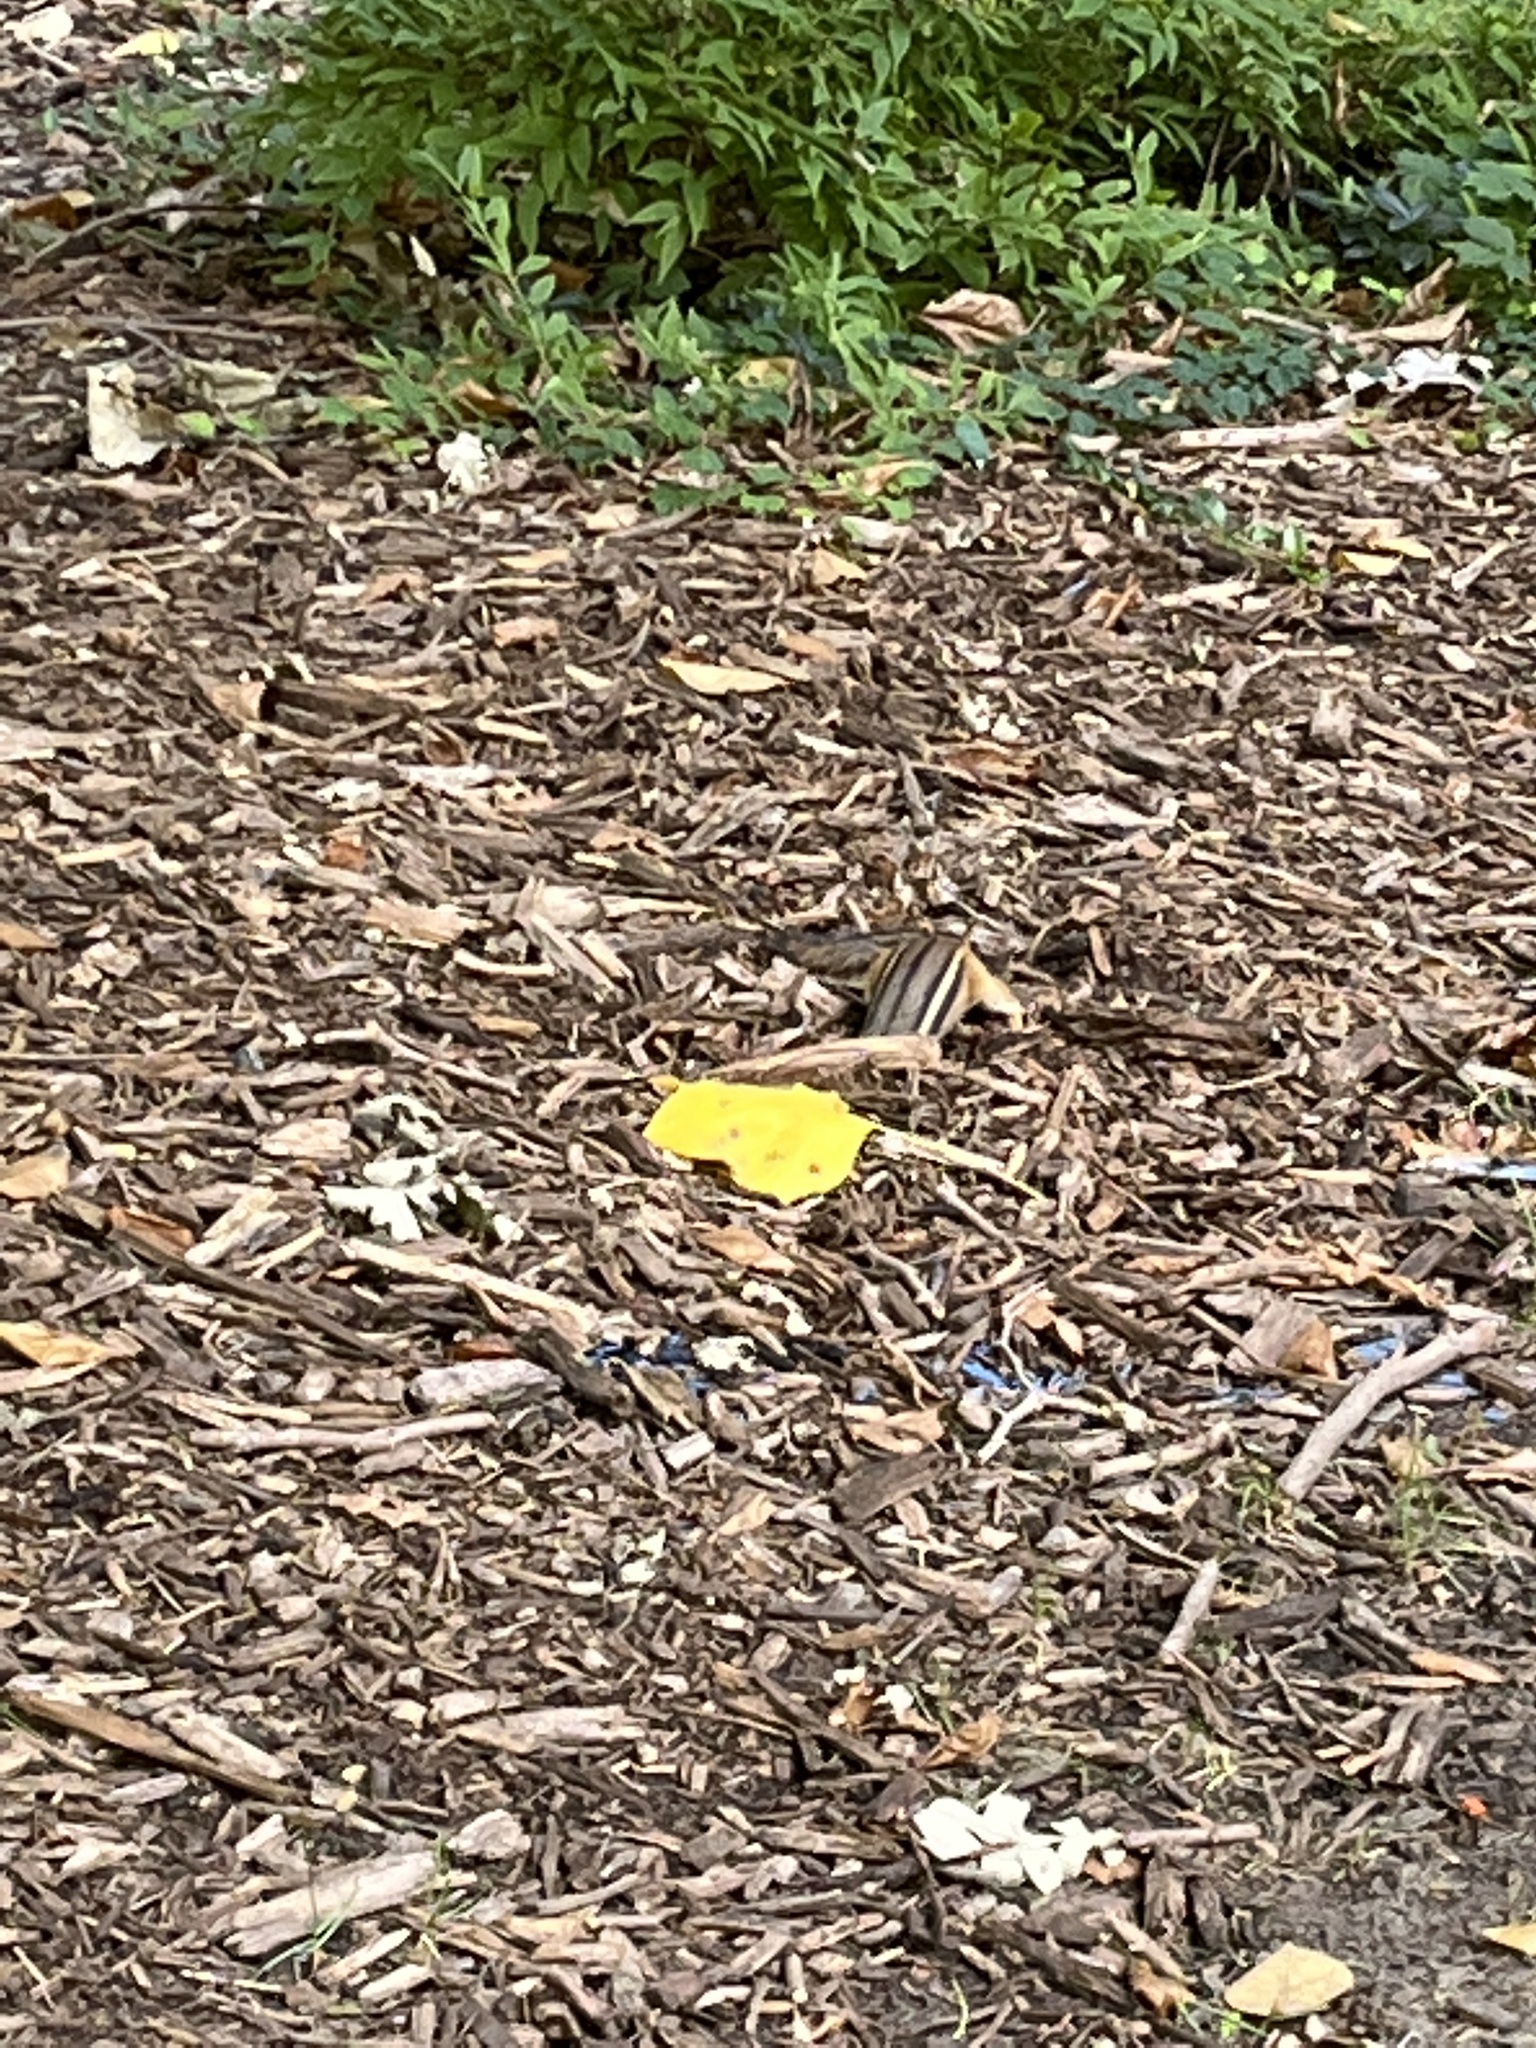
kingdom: Animalia
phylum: Chordata
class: Mammalia
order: Rodentia
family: Sciuridae
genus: Tamias
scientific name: Tamias striatus
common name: Eastern chipmunk
